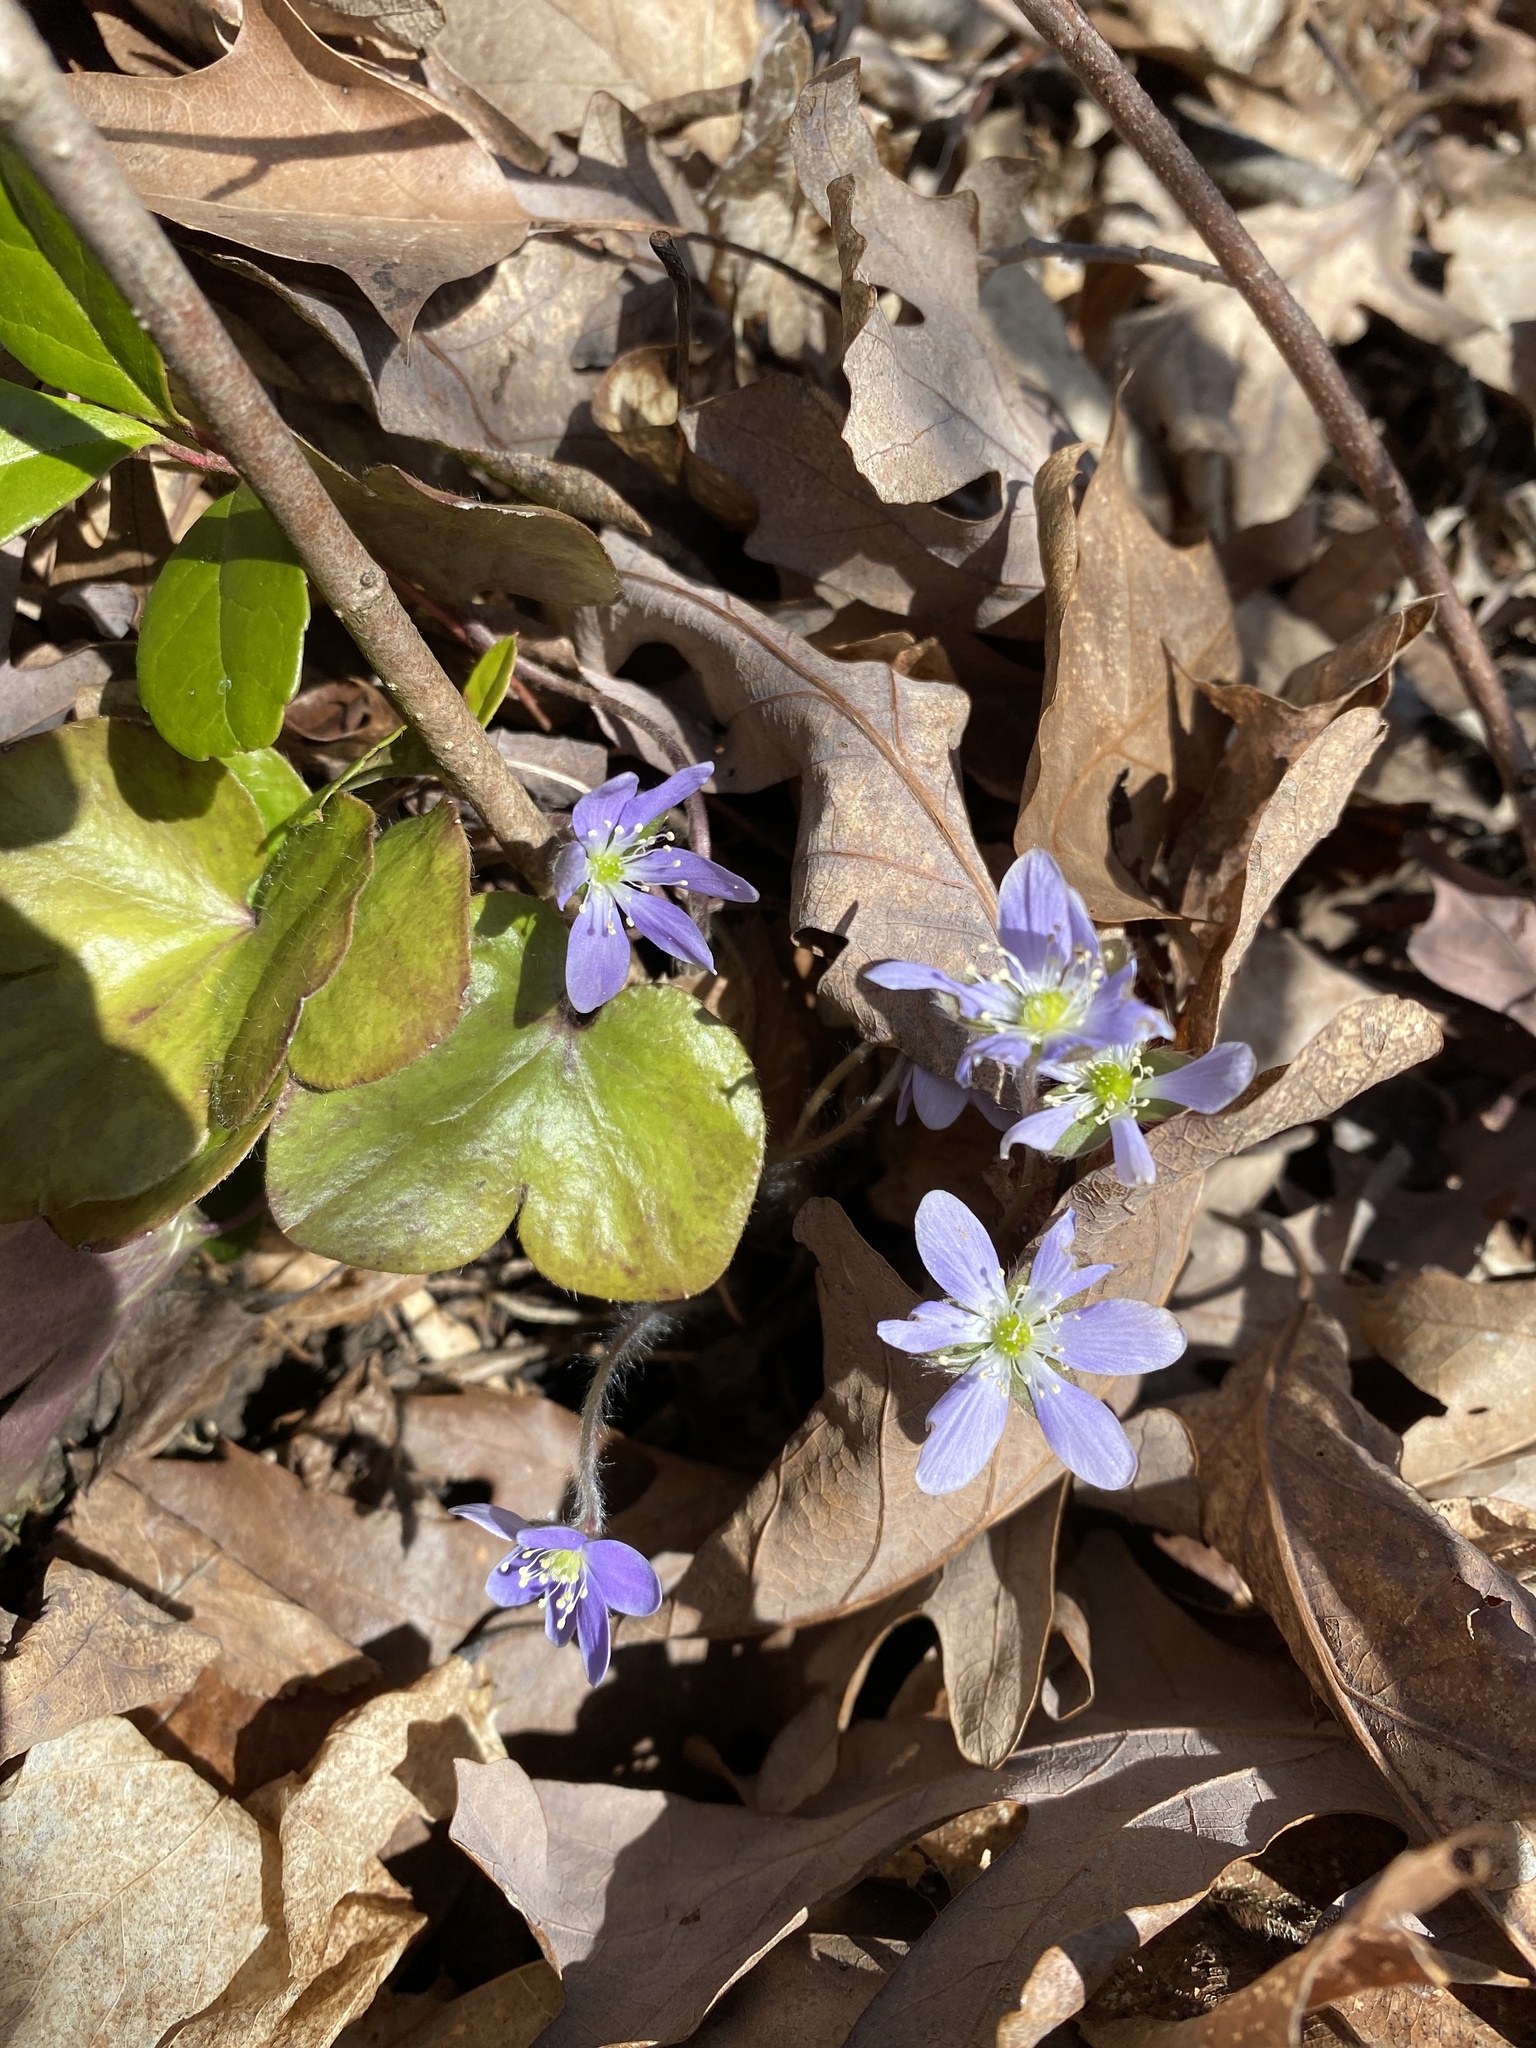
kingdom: Plantae
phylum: Tracheophyta
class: Magnoliopsida
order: Ranunculales
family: Ranunculaceae
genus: Hepatica
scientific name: Hepatica americana
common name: American hepatica
